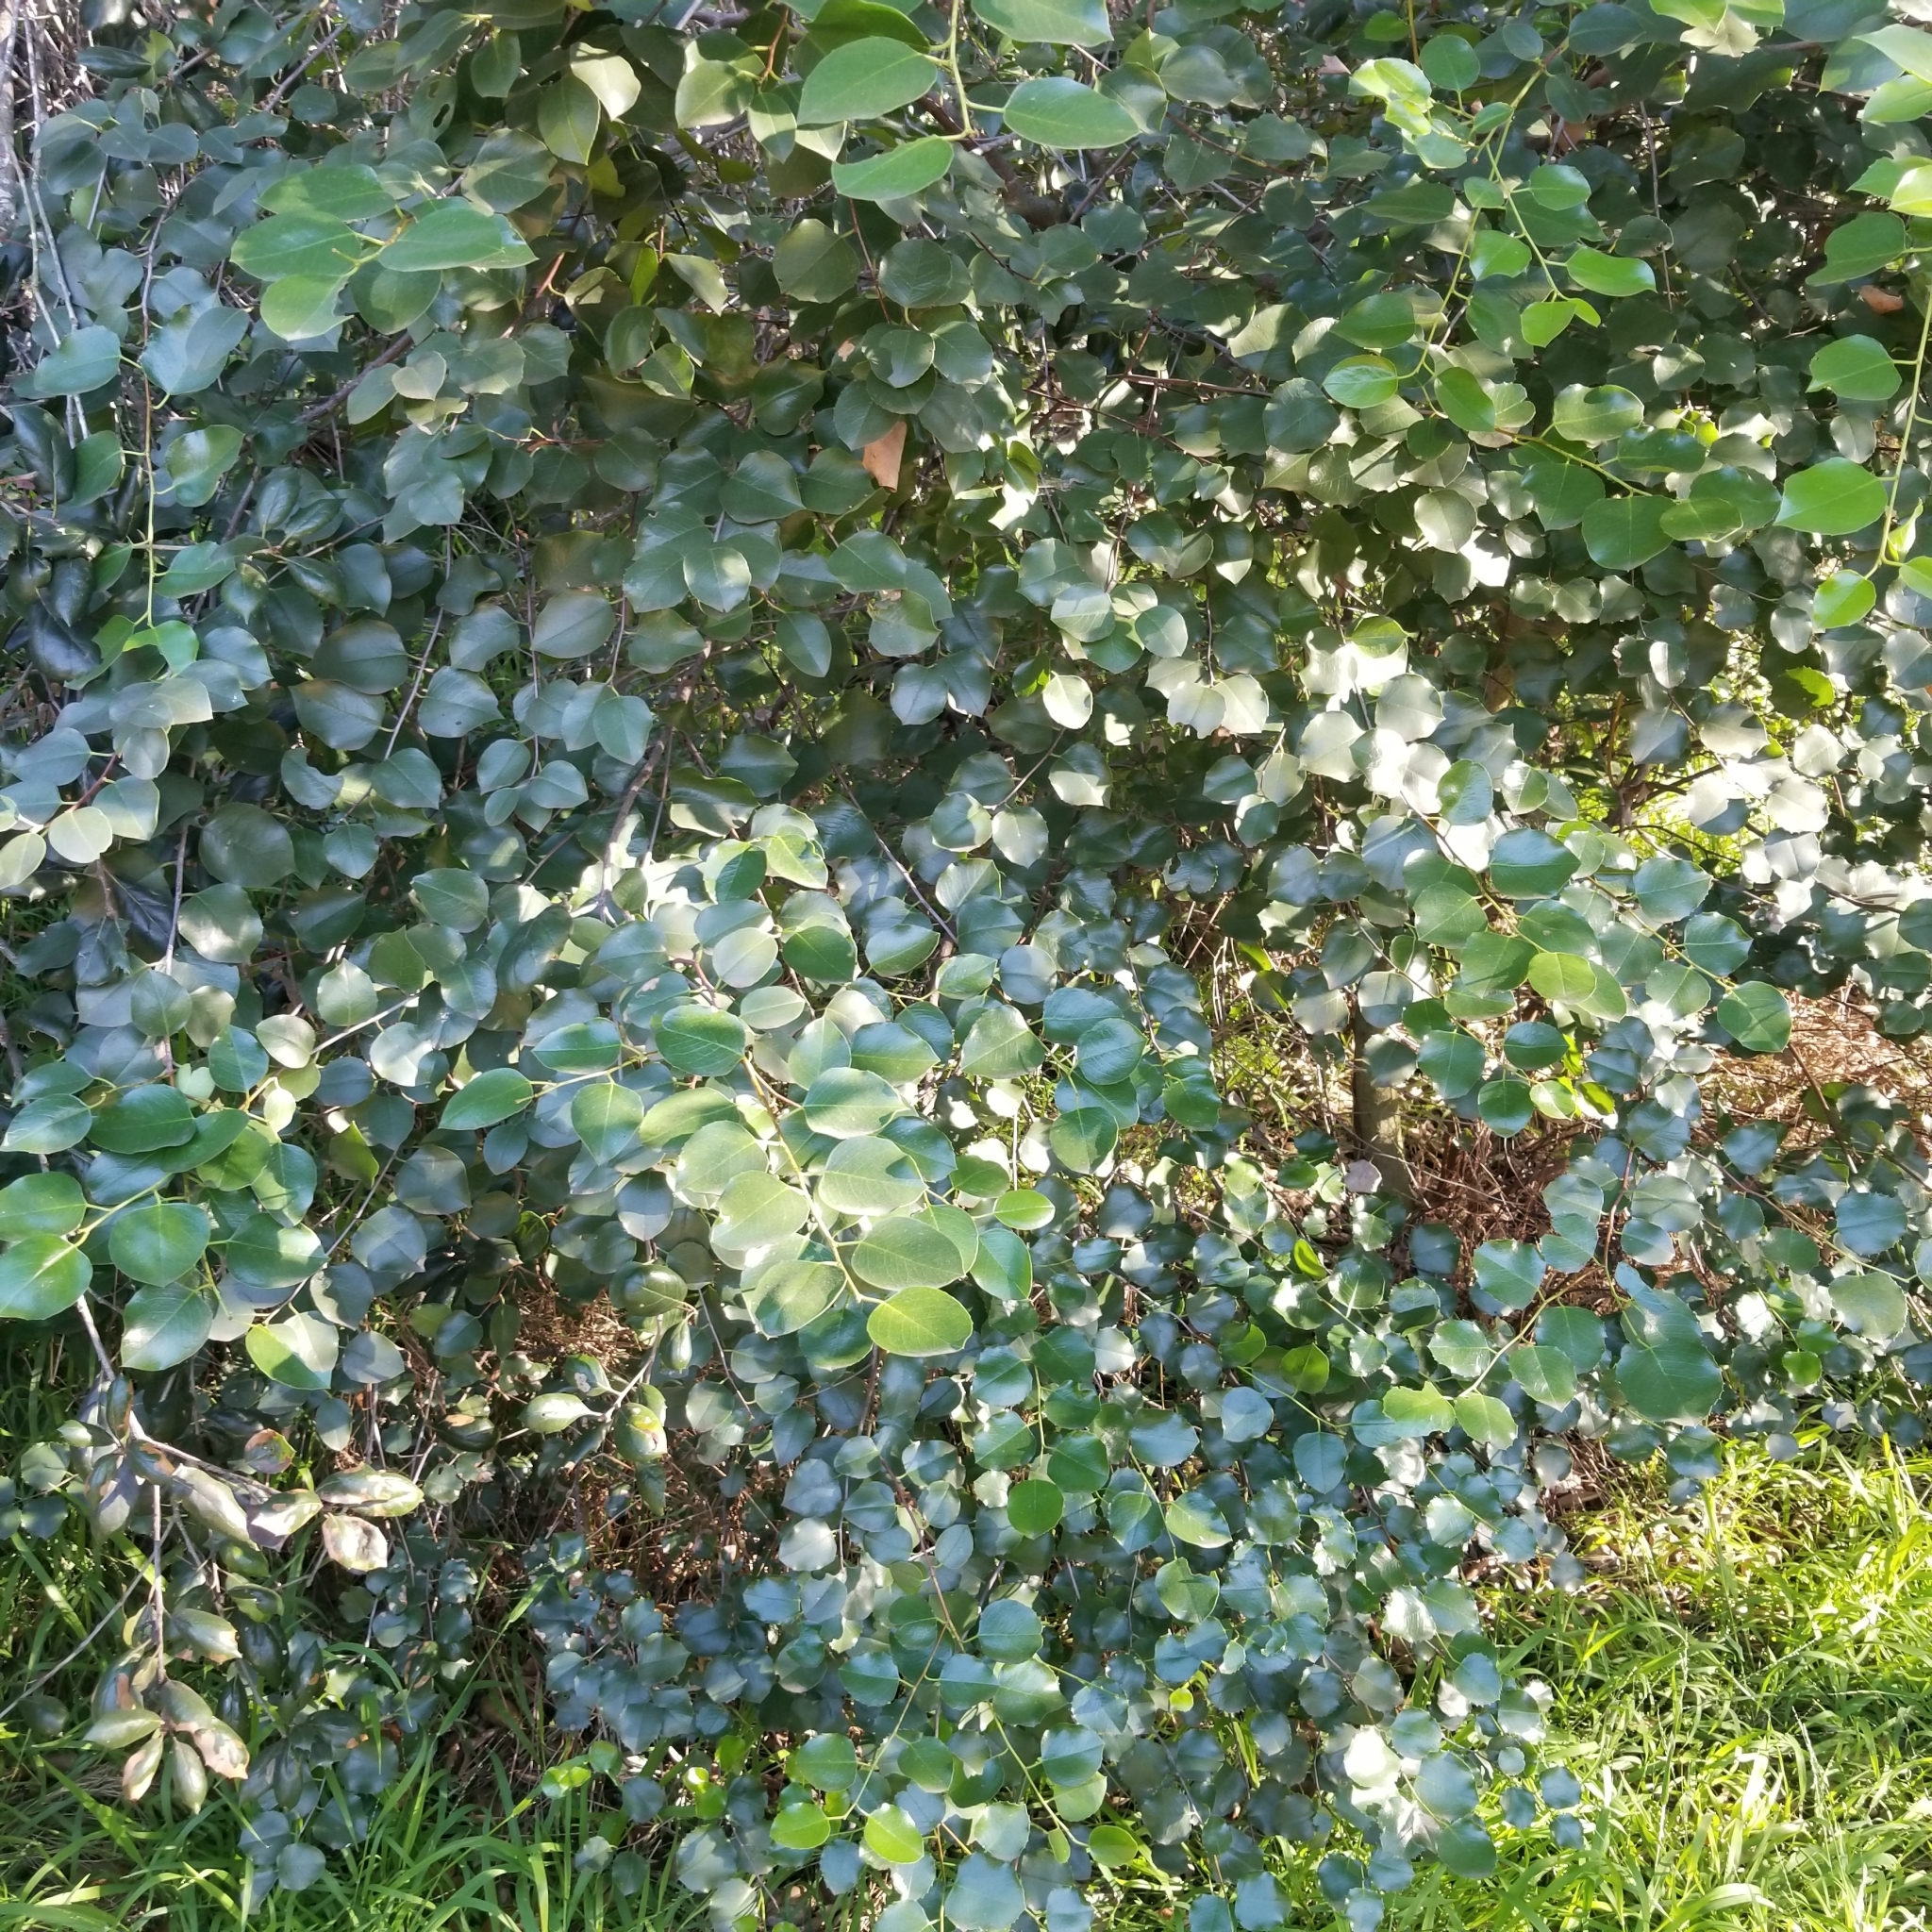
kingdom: Plantae
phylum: Tracheophyta
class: Magnoliopsida
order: Rosales
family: Rosaceae
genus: Prunus
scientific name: Prunus ilicifolia
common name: Hollyleaf cherry
